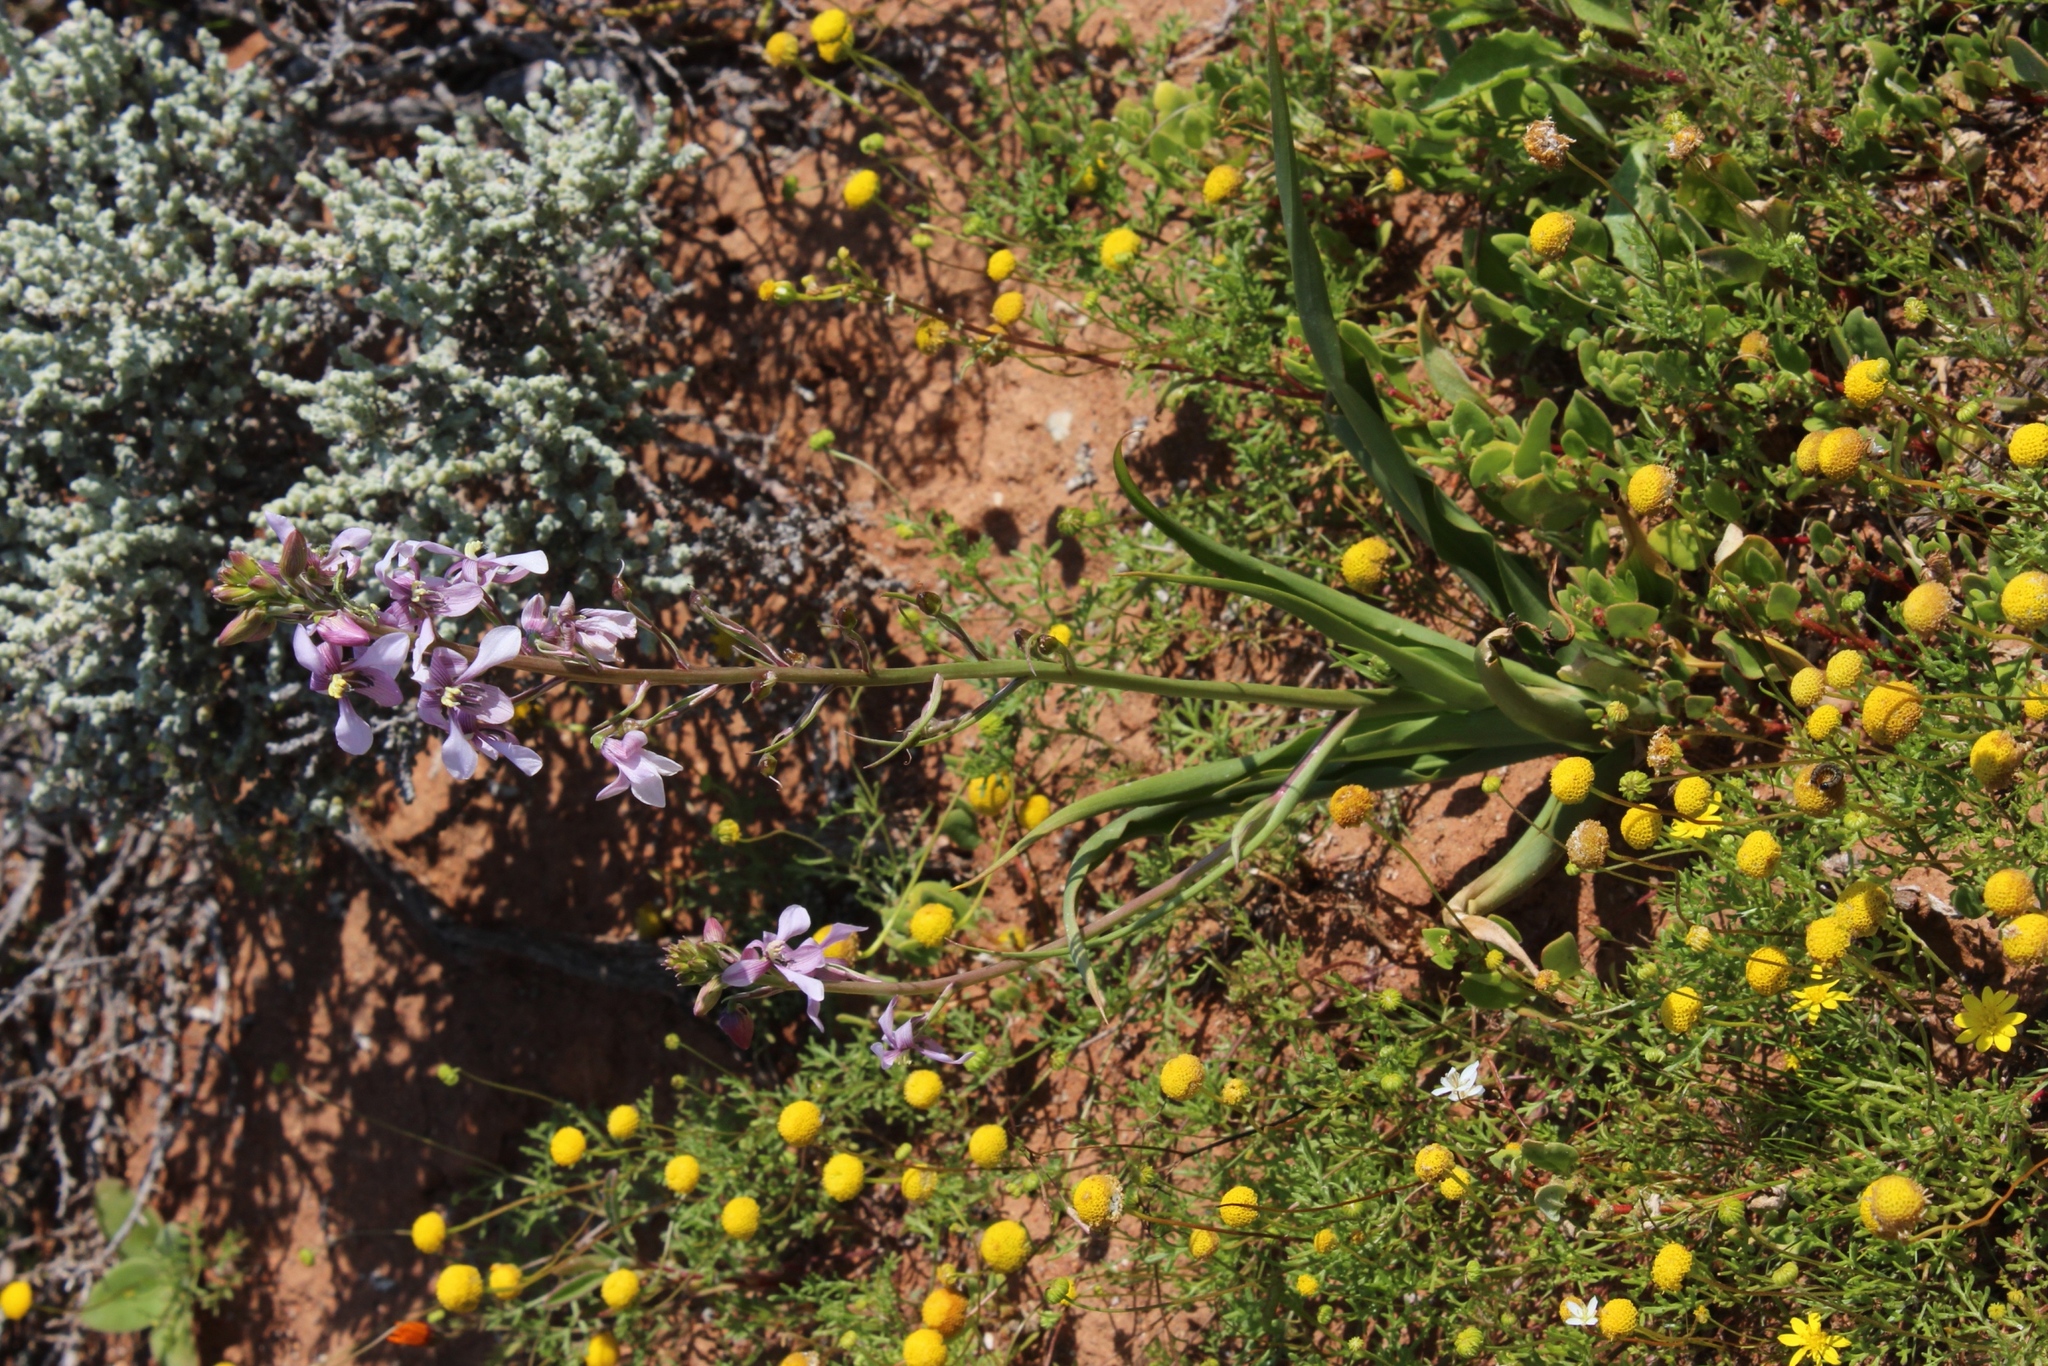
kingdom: Plantae
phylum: Tracheophyta
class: Liliopsida
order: Asparagales
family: Tecophilaeaceae
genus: Cyanella
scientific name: Cyanella orchidiformis
